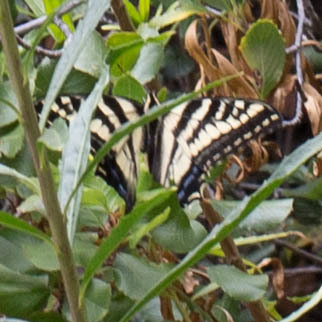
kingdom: Animalia
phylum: Arthropoda
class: Insecta
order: Lepidoptera
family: Papilionidae
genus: Papilio
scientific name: Papilio eurymedon
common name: Pale tiger swallowtail
